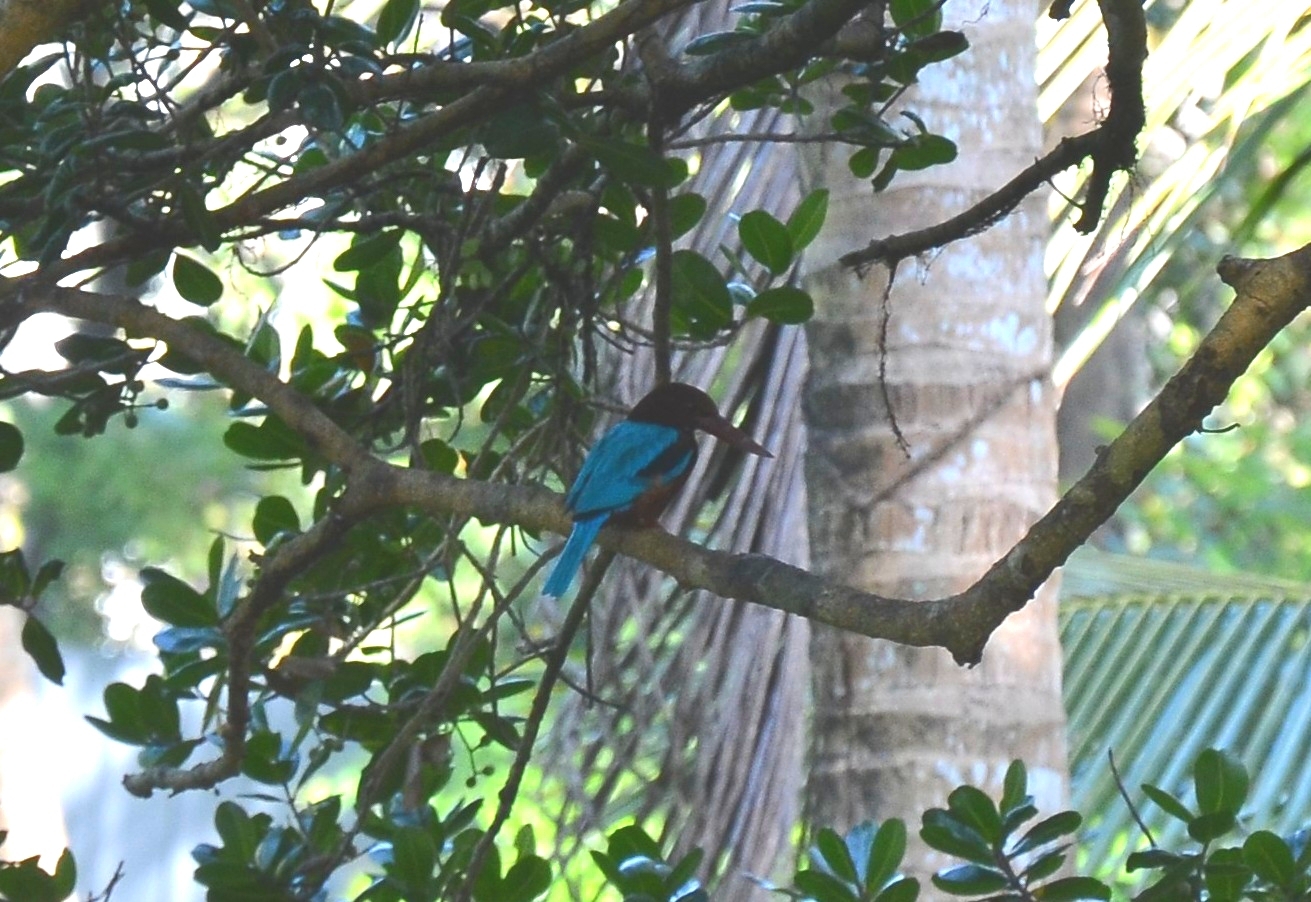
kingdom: Animalia
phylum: Chordata
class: Aves
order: Coraciiformes
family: Alcedinidae
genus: Halcyon
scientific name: Halcyon smyrnensis
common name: White-throated kingfisher
